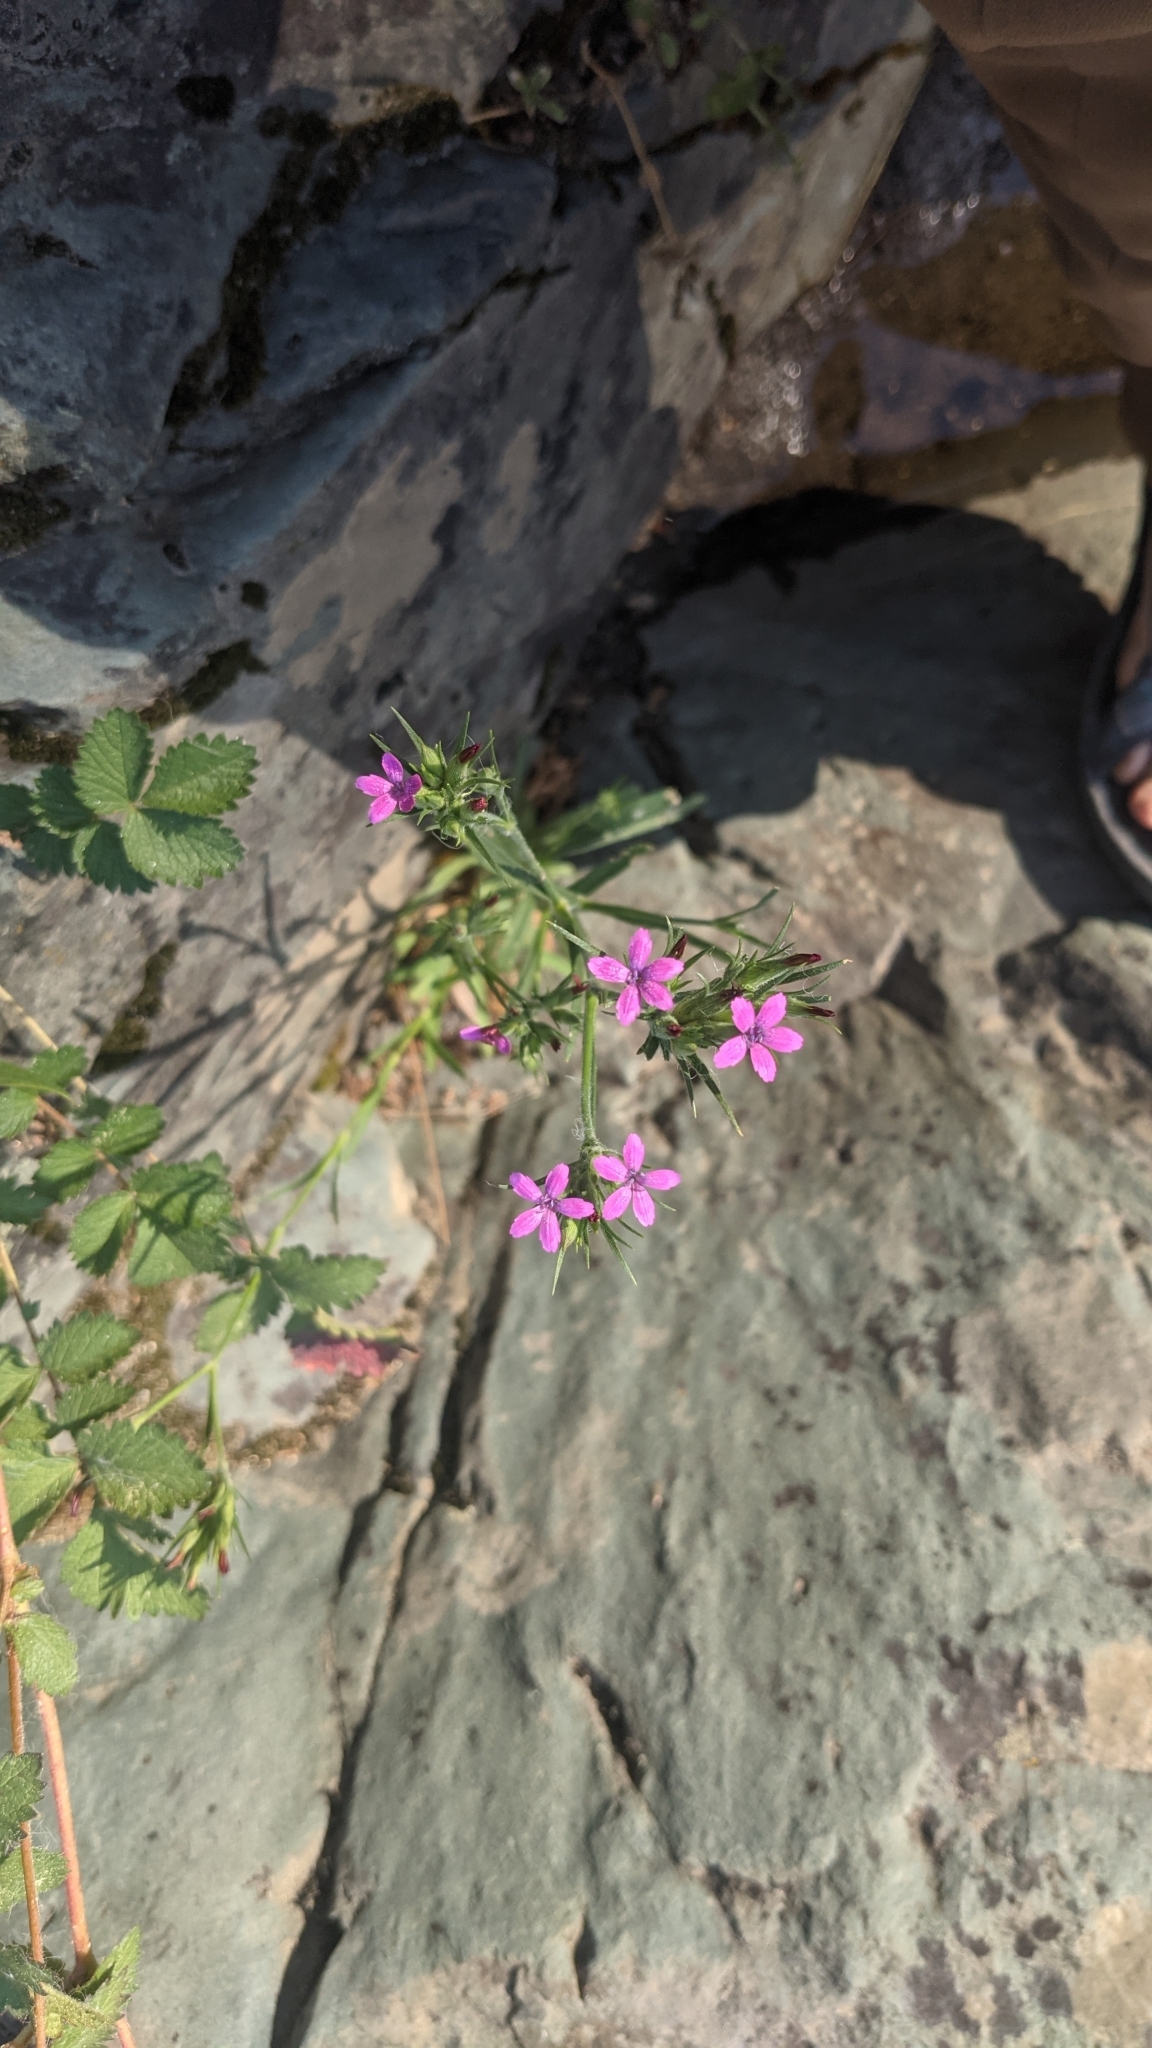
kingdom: Plantae
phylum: Tracheophyta
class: Magnoliopsida
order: Caryophyllales
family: Caryophyllaceae
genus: Dianthus
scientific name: Dianthus armeria
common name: Deptford pink
